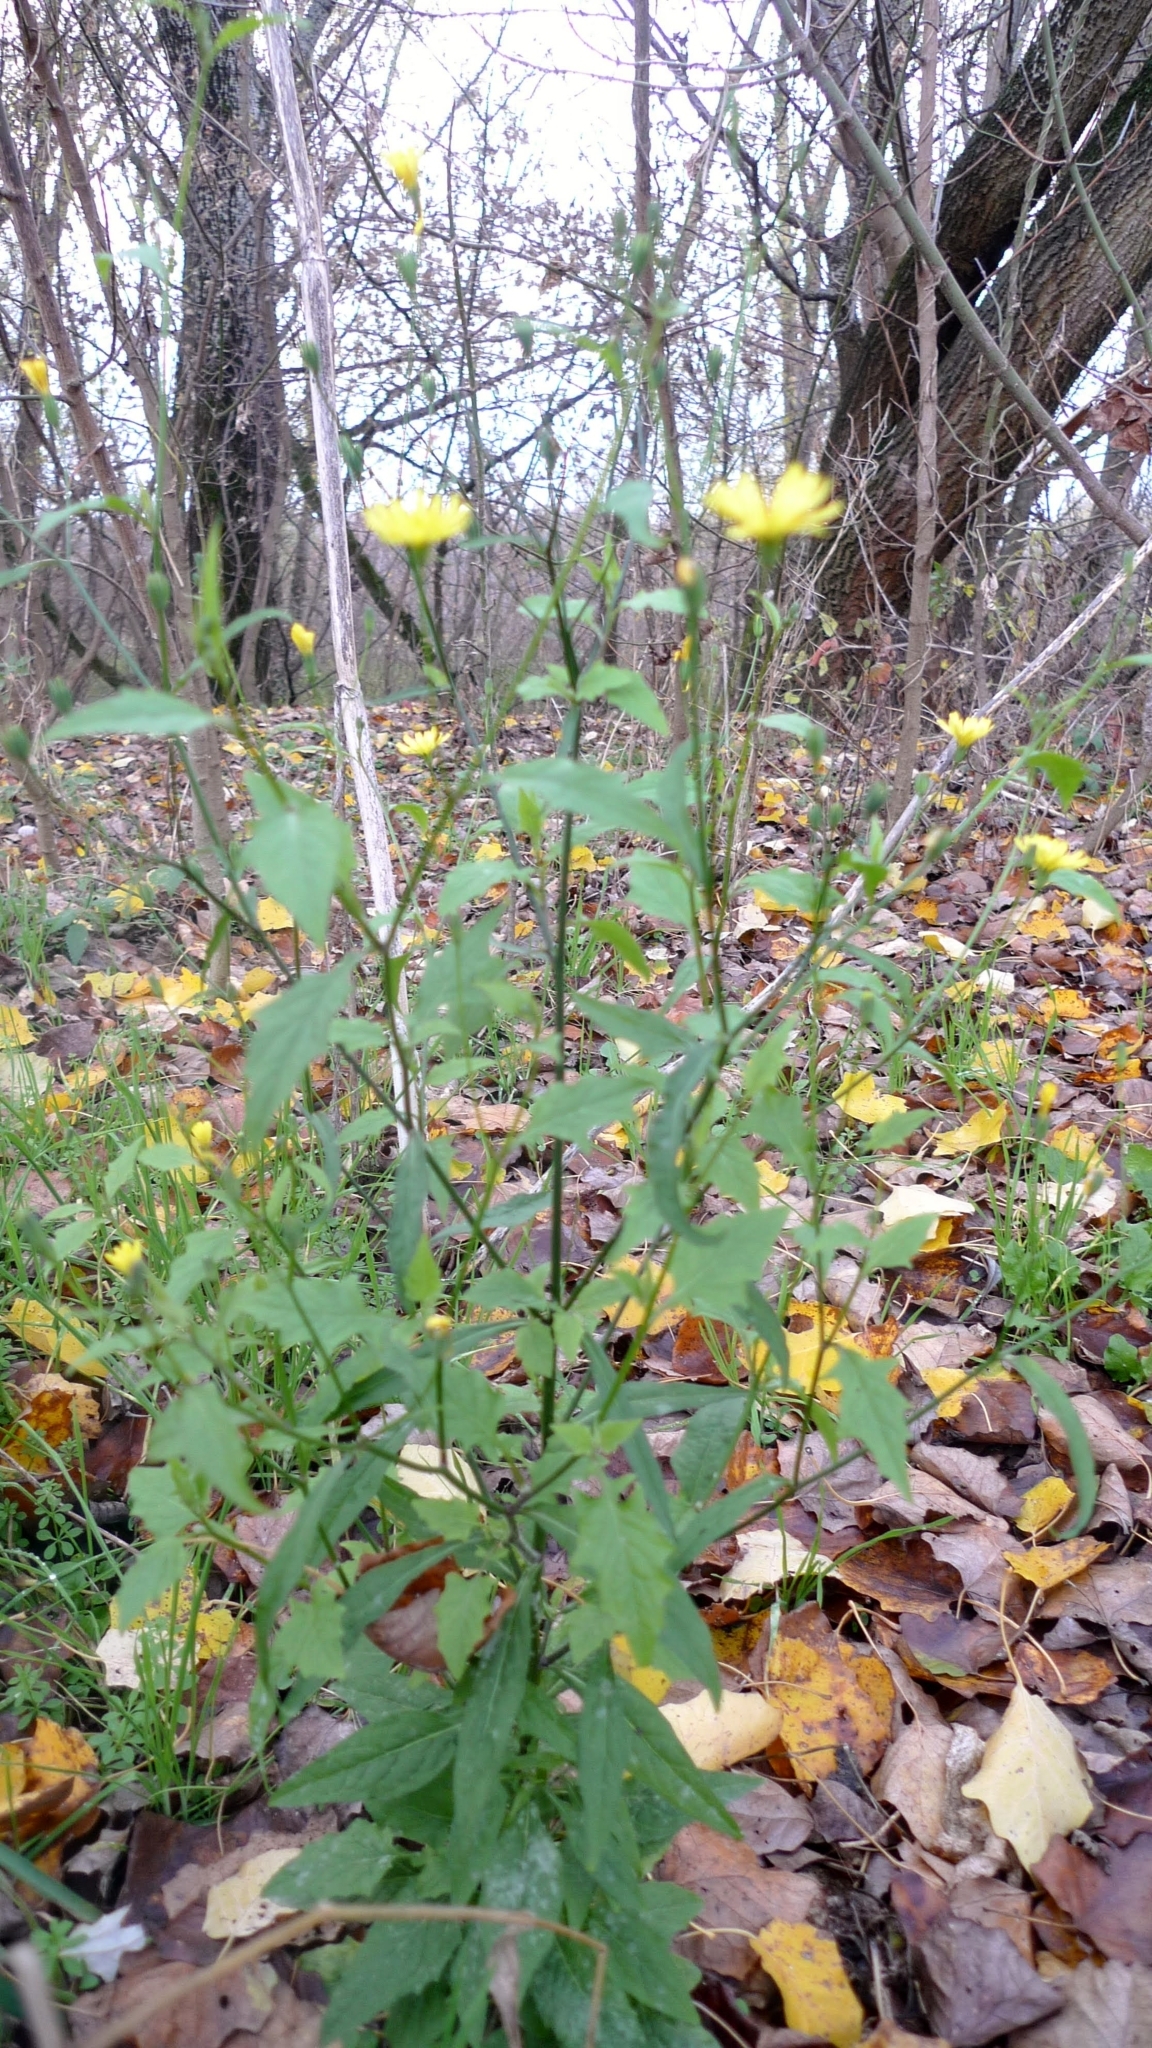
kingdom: Plantae
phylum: Tracheophyta
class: Magnoliopsida
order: Asterales
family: Asteraceae
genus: Lapsana
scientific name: Lapsana communis
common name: Nipplewort
